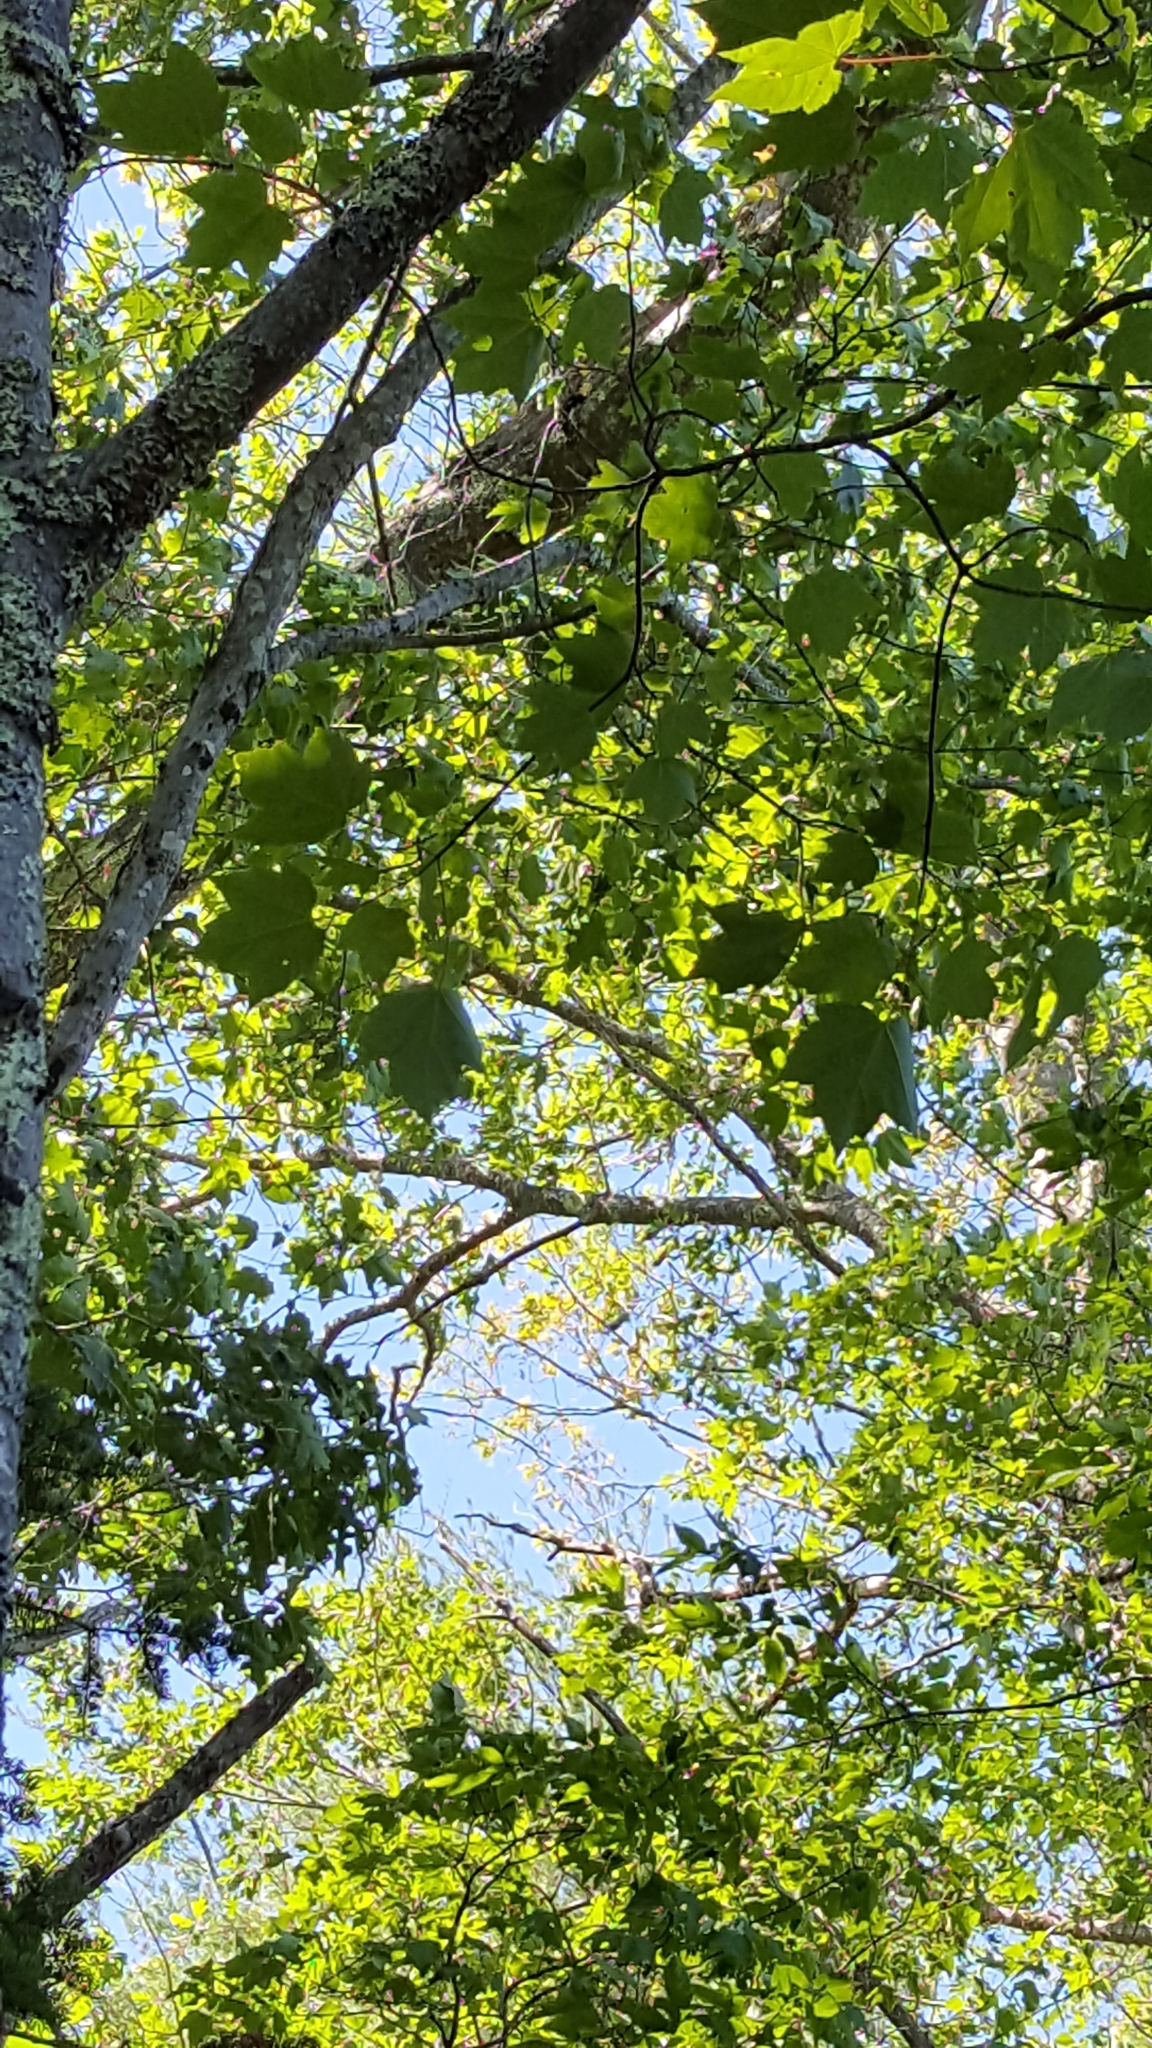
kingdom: Plantae
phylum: Tracheophyta
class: Magnoliopsida
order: Sapindales
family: Sapindaceae
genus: Acer
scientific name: Acer rubrum
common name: Red maple
